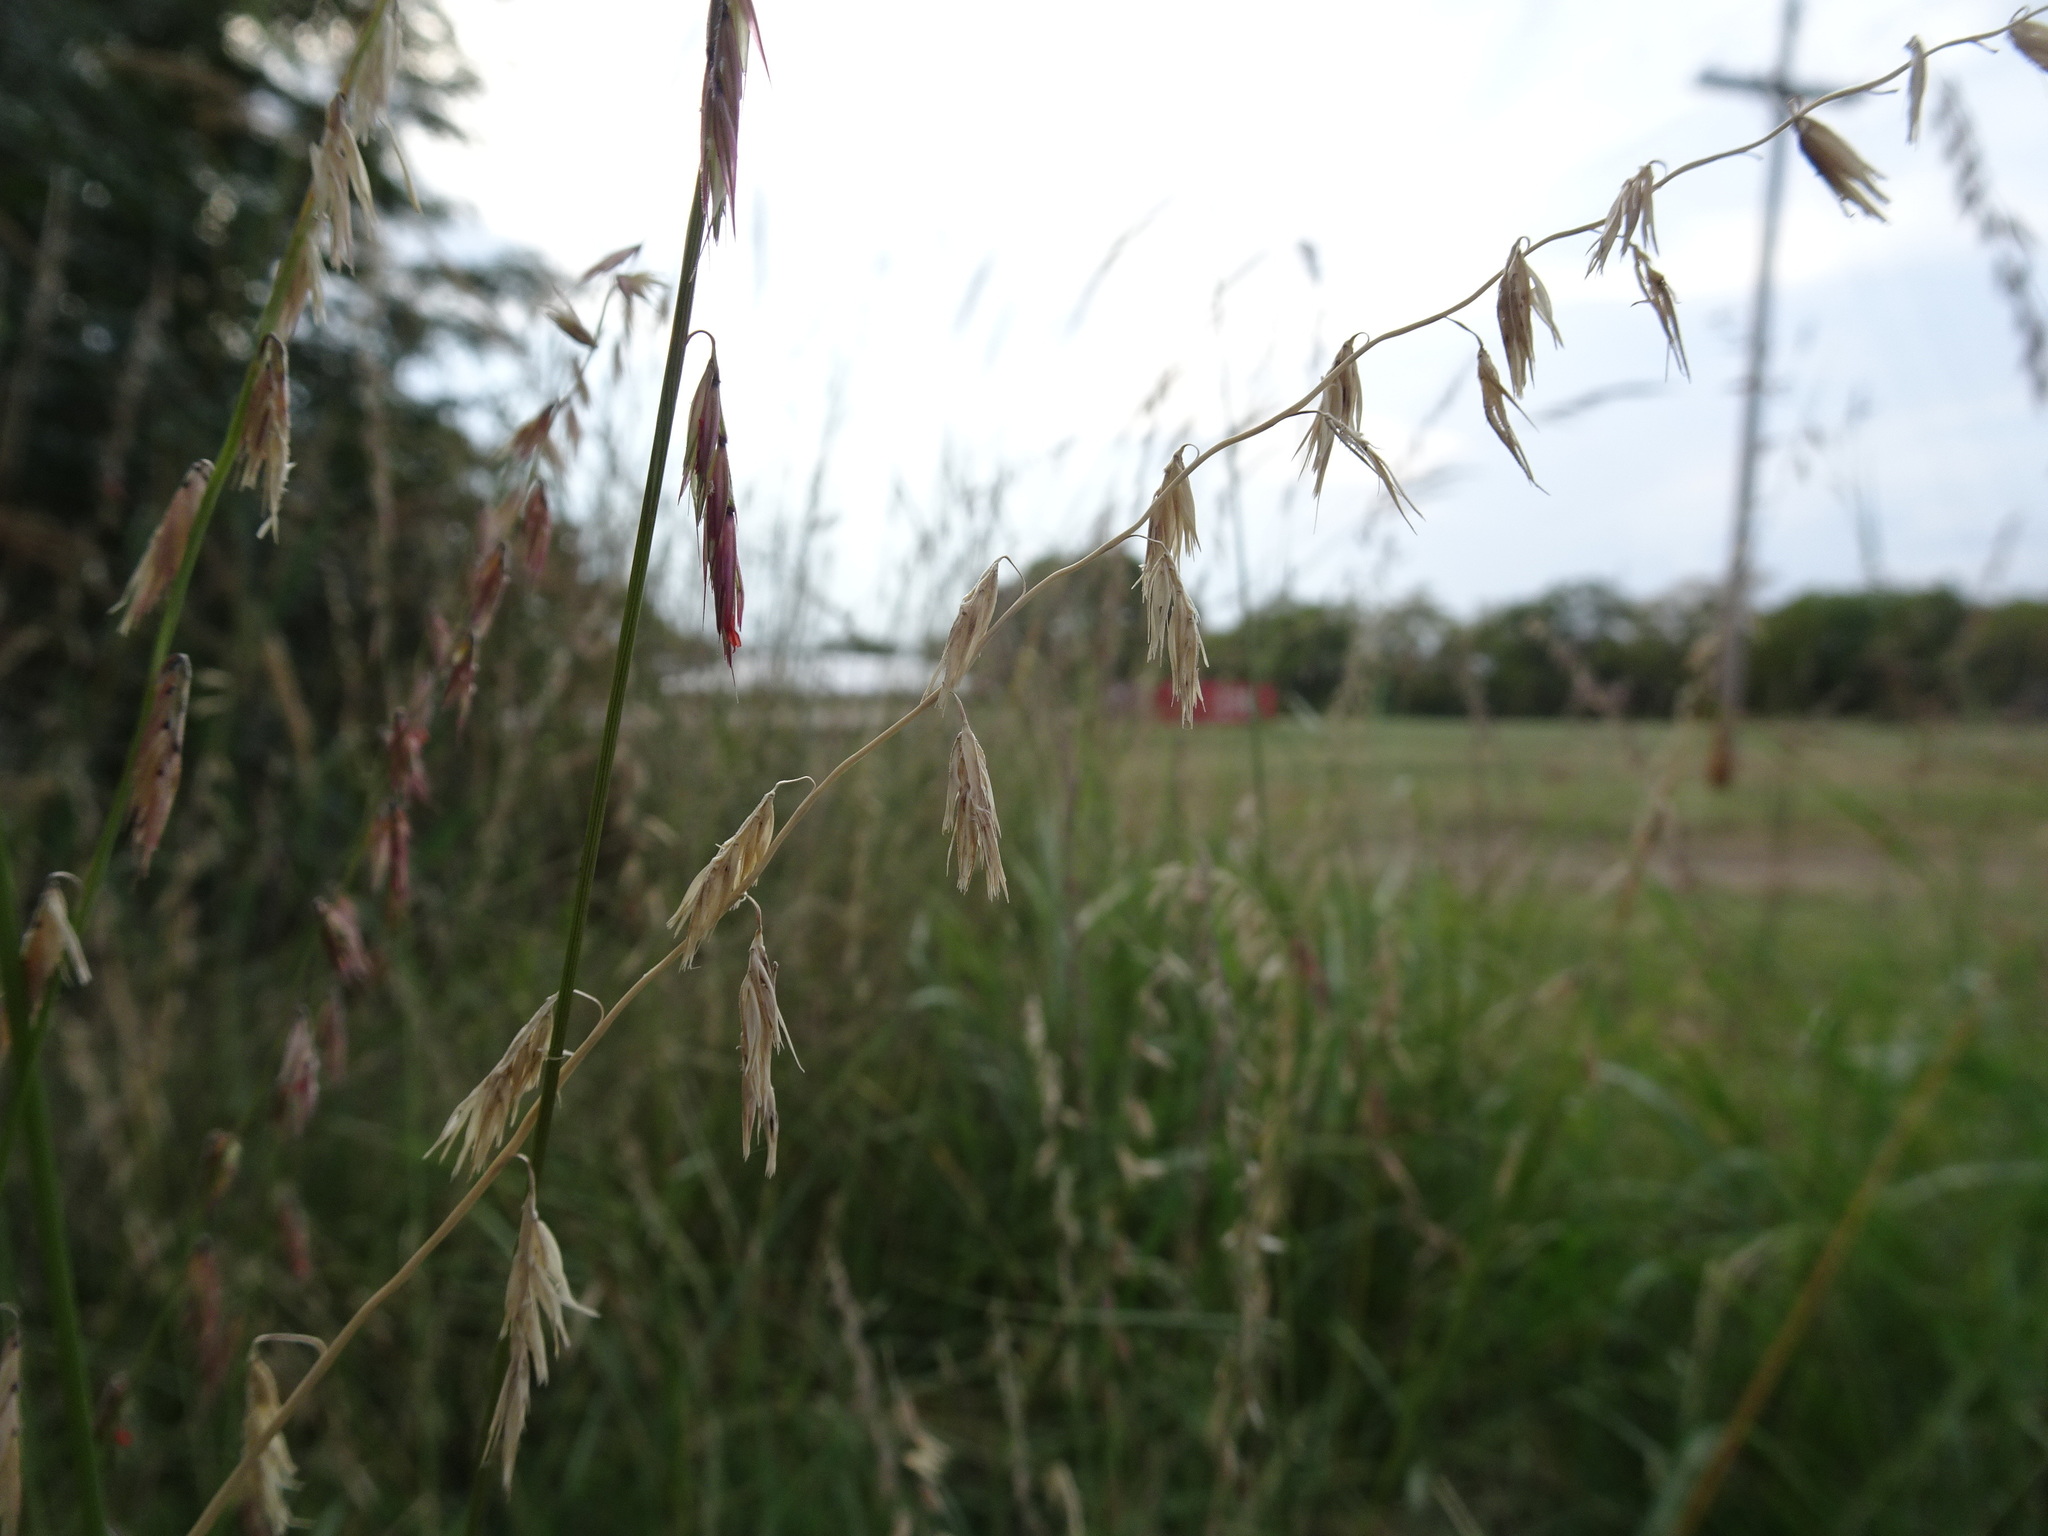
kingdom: Plantae
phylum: Tracheophyta
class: Liliopsida
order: Poales
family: Poaceae
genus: Bouteloua
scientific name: Bouteloua curtipendula
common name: Side-oats grama
